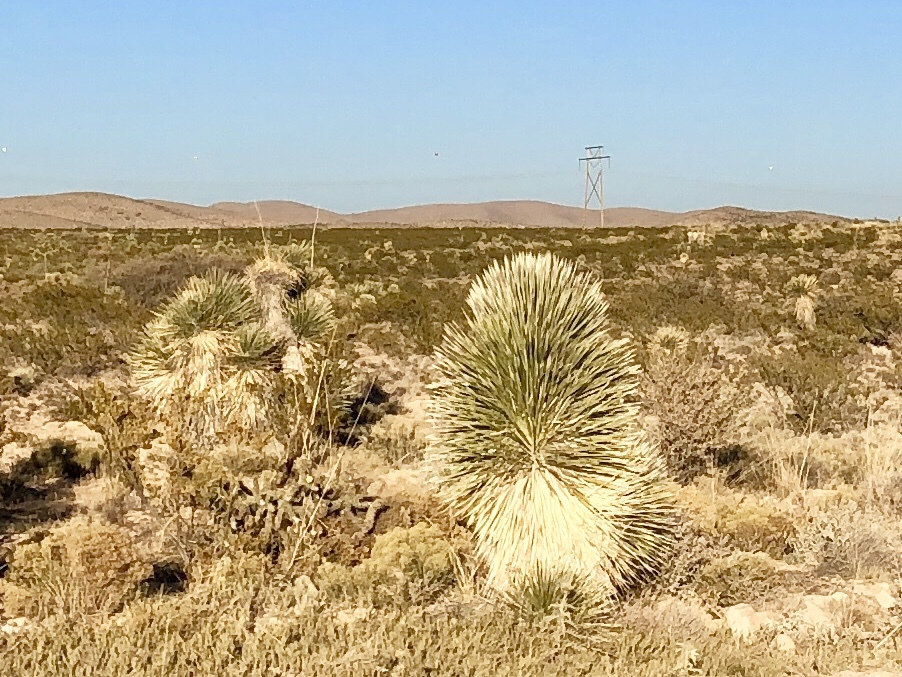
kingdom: Plantae
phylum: Tracheophyta
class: Liliopsida
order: Asparagales
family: Asparagaceae
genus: Yucca
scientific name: Yucca elata
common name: Palmella
